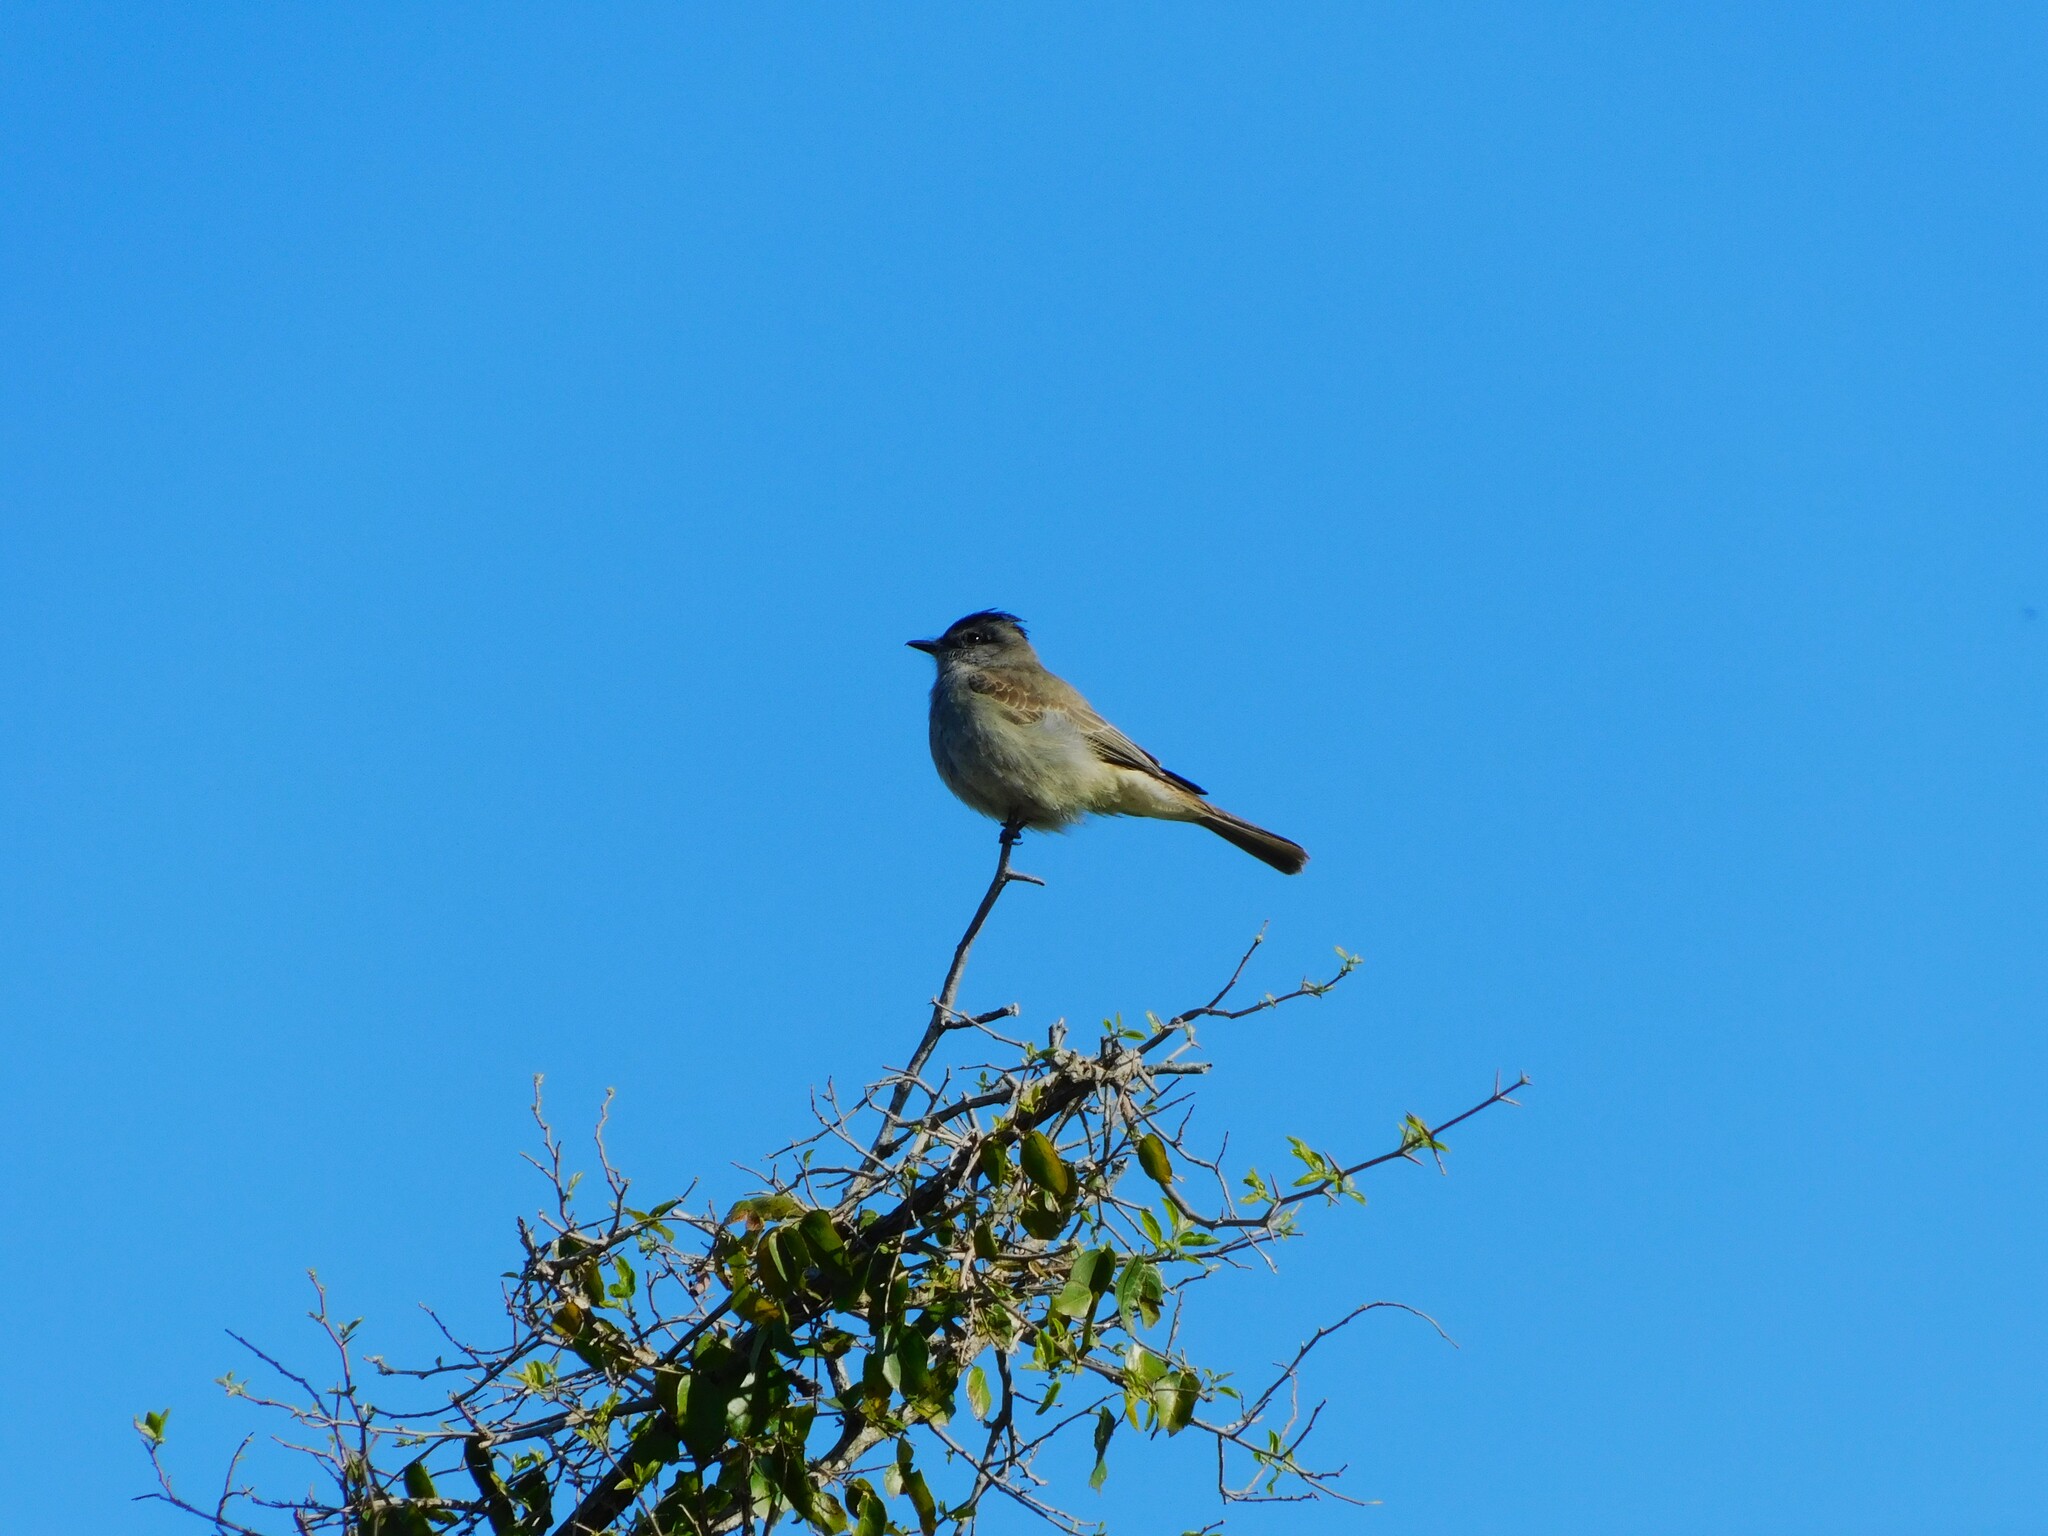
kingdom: Animalia
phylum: Chordata
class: Aves
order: Passeriformes
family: Tyrannidae
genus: Empidonomus
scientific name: Empidonomus aurantioatrocristatus
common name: Crowned slaty flycatcher
